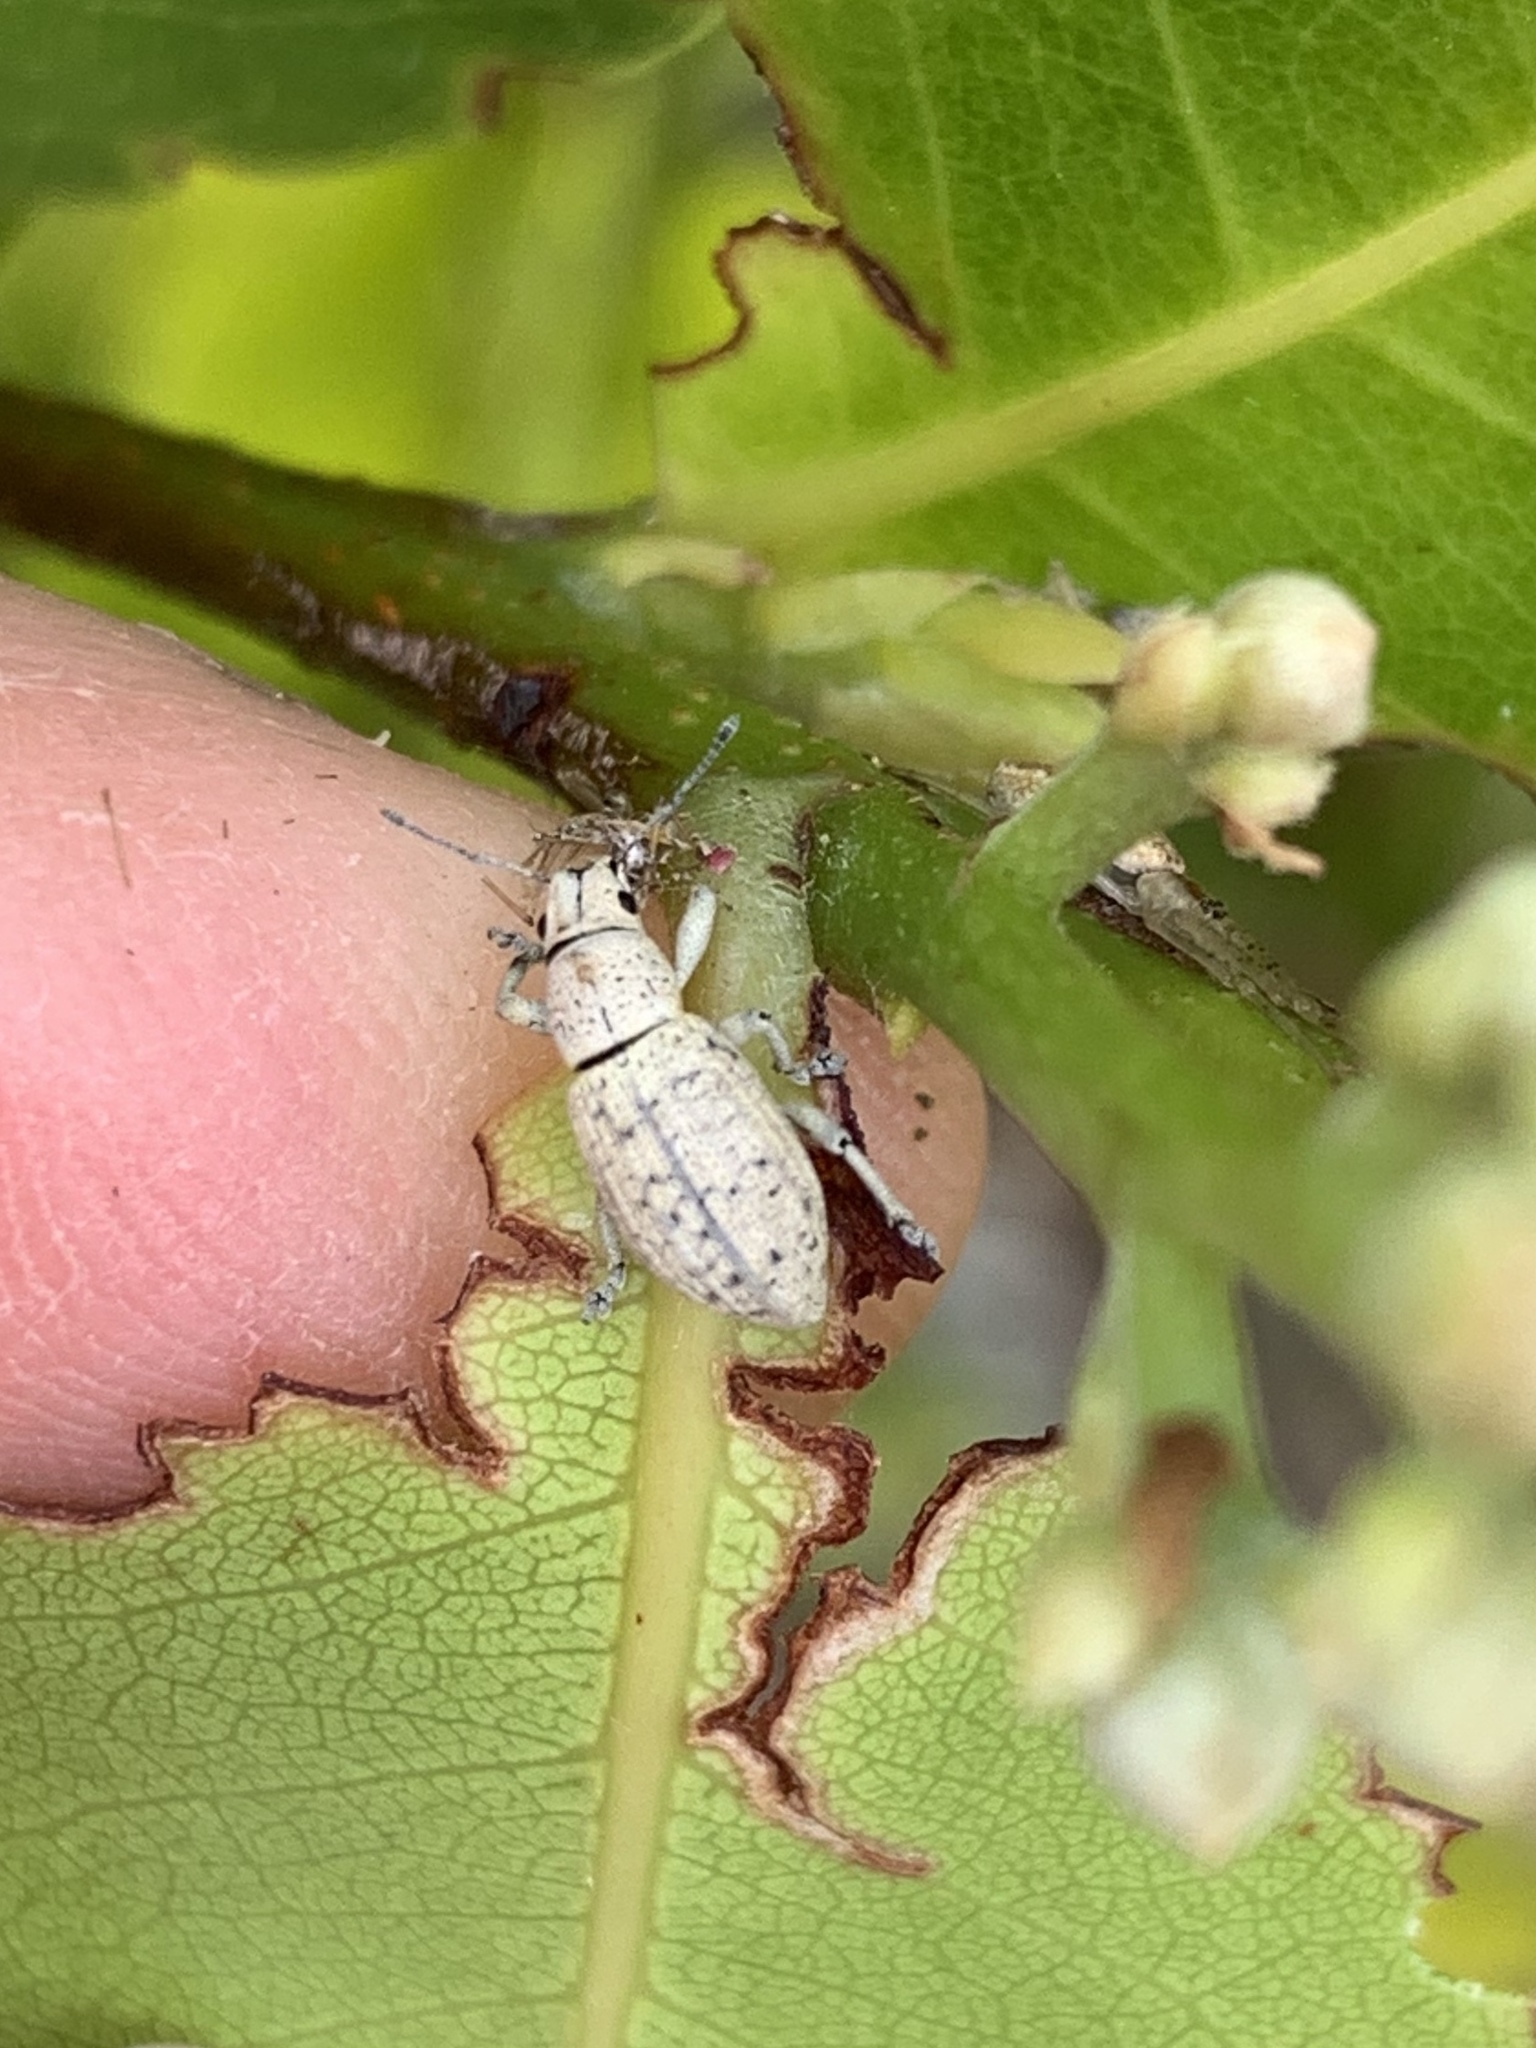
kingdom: Animalia
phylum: Arthropoda
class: Insecta
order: Coleoptera
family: Curculionidae
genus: Artipus
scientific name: Artipus floridanus
